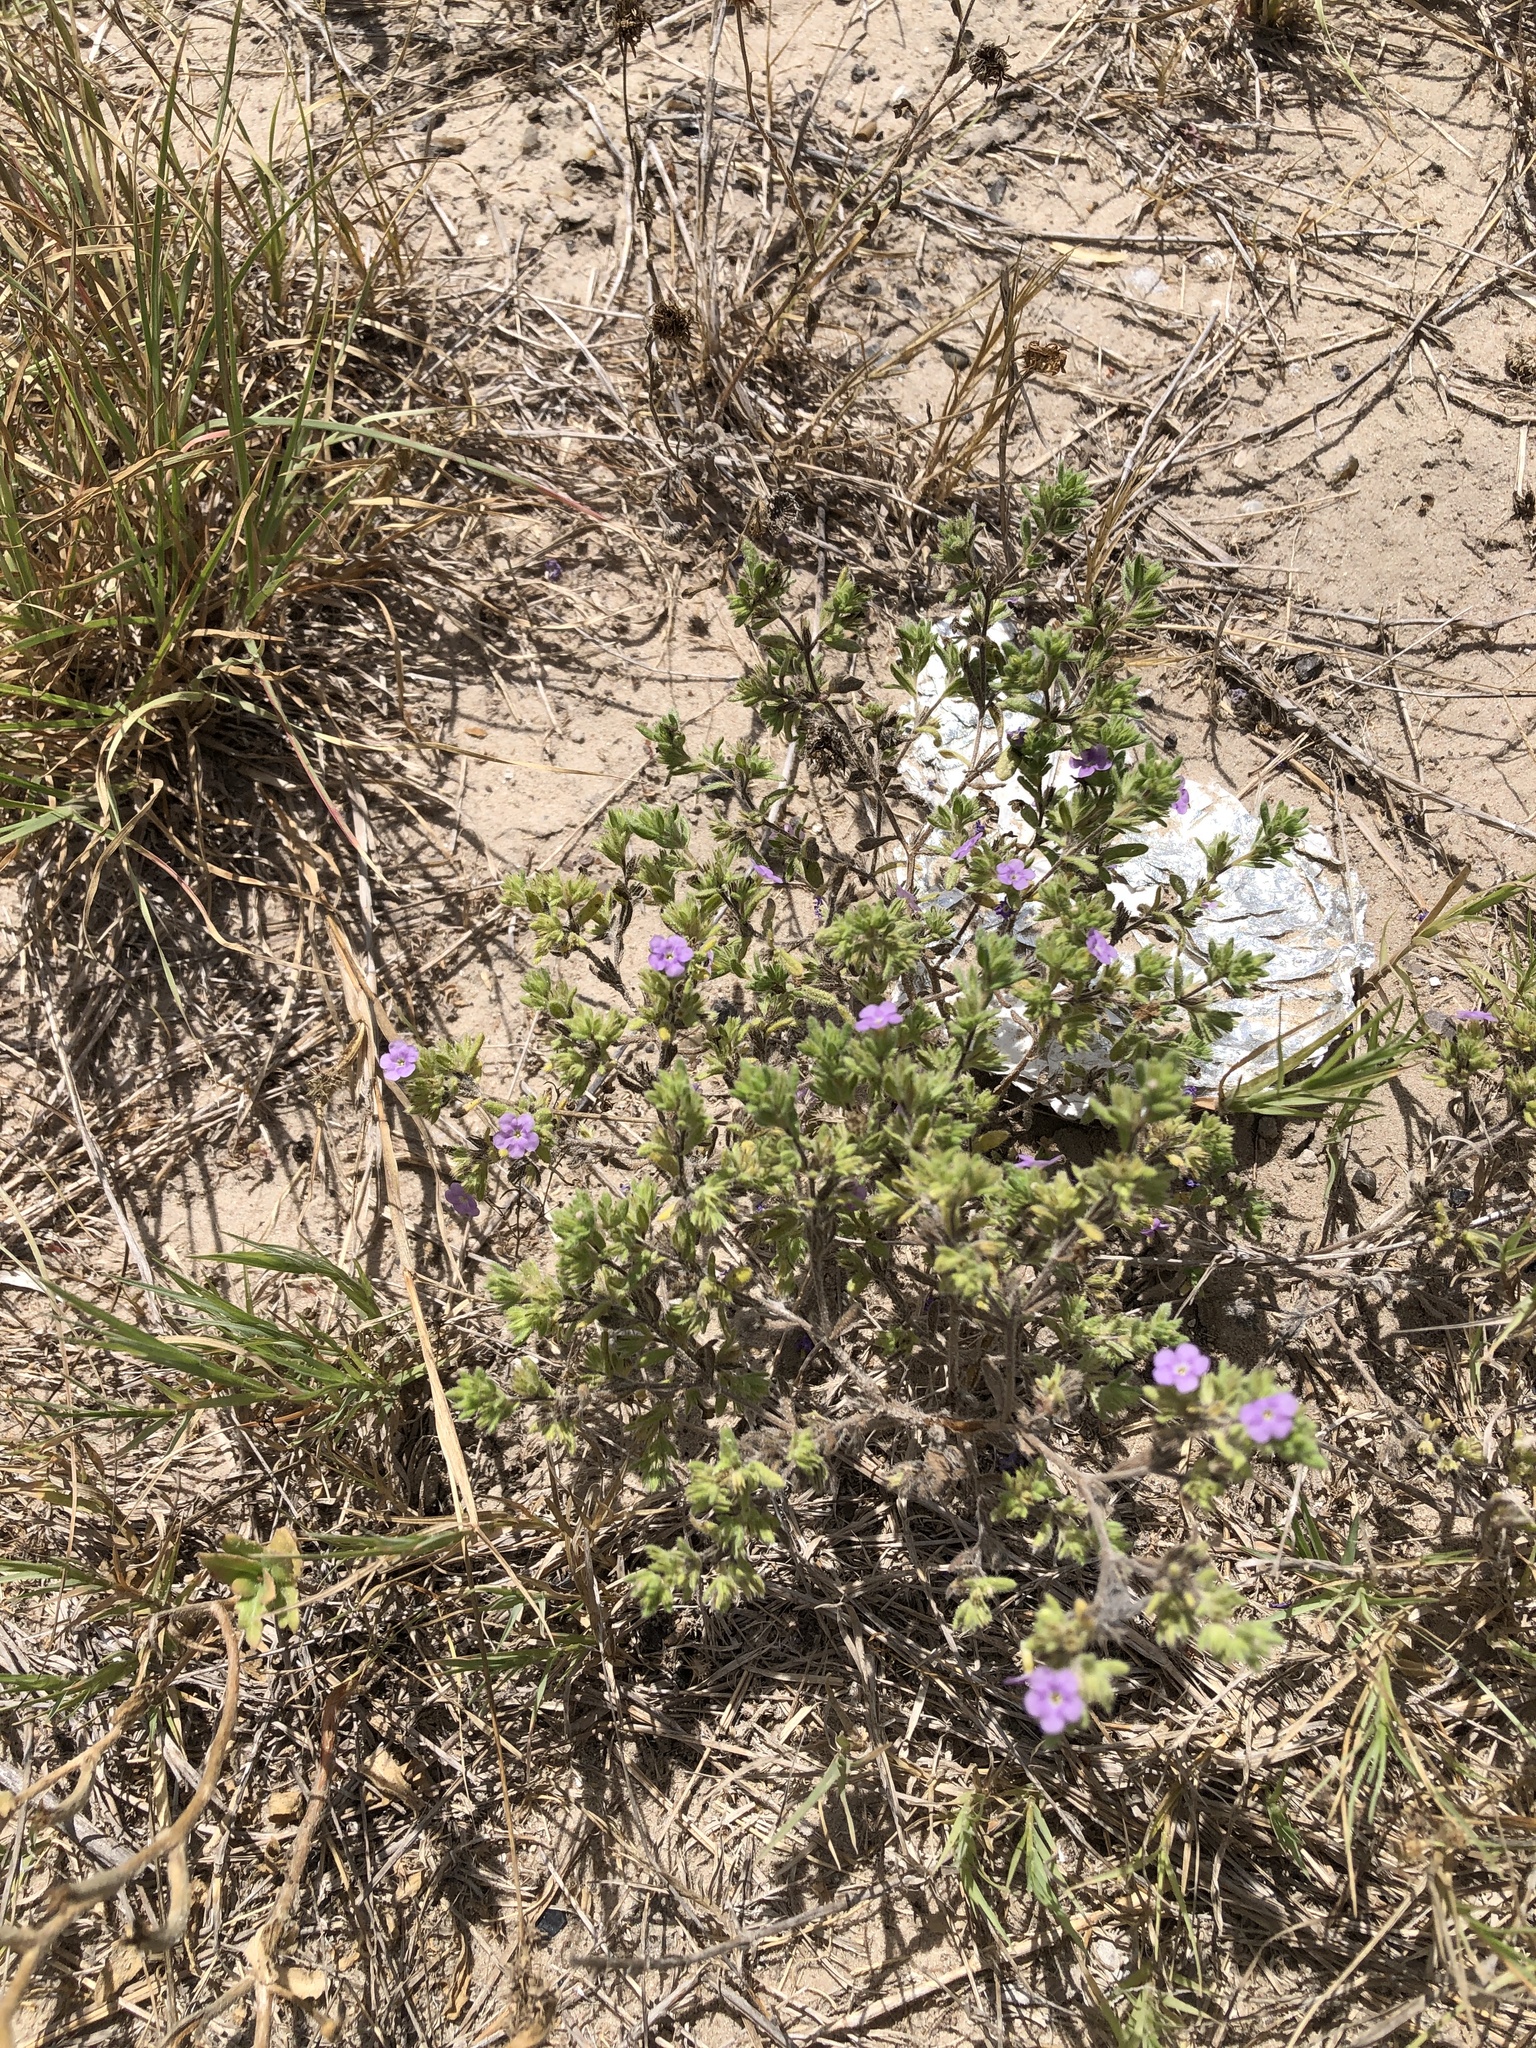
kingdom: Plantae
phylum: Tracheophyta
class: Magnoliopsida
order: Boraginales
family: Namaceae
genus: Nama
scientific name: Nama hispida
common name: Bristly nama
